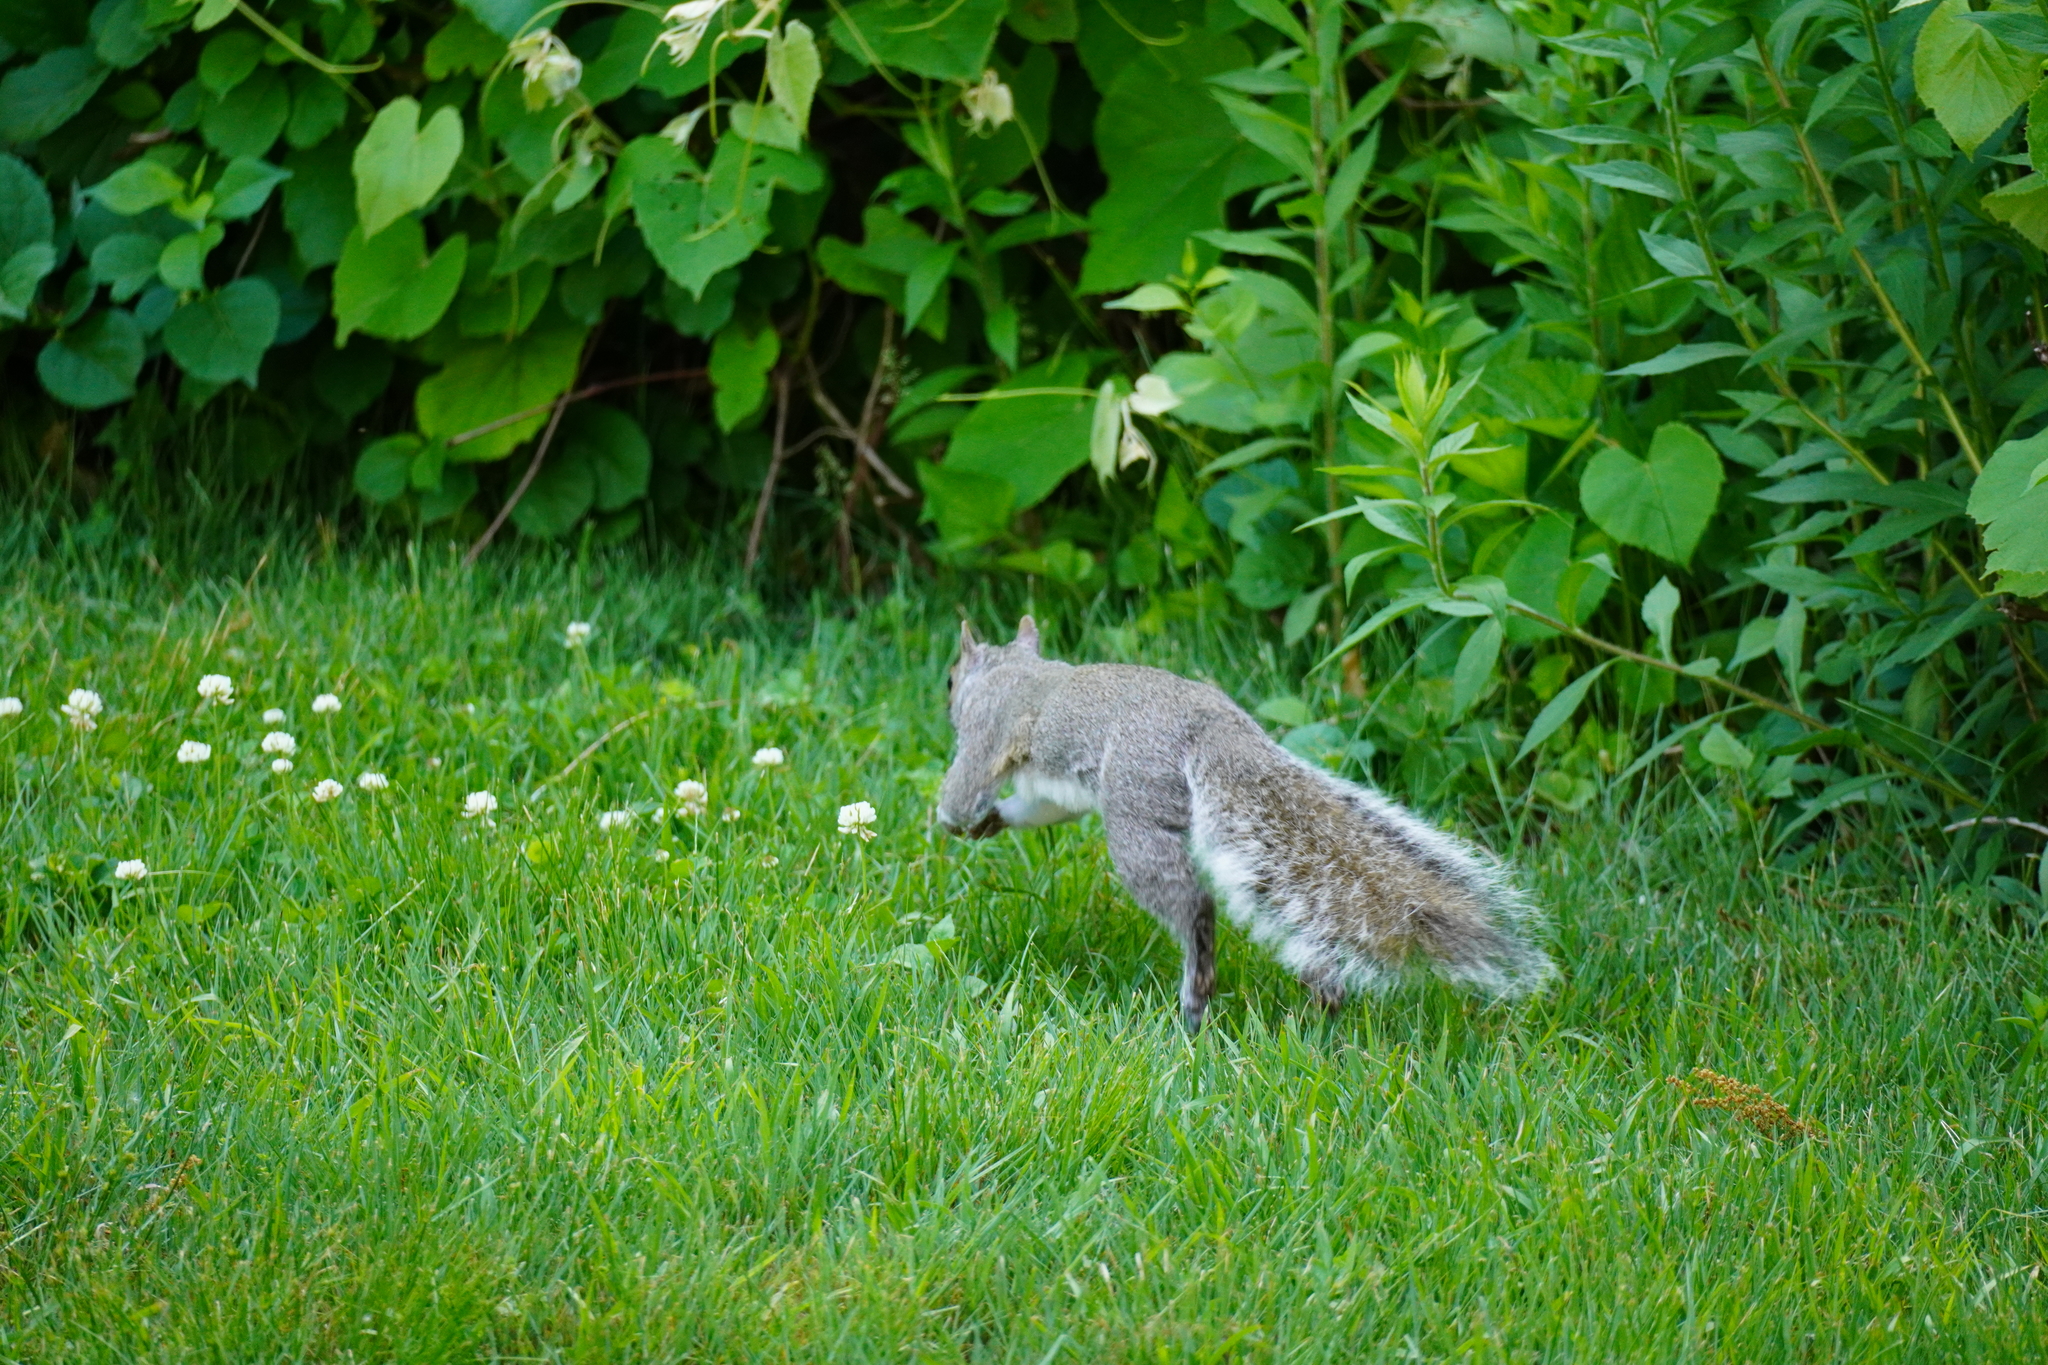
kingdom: Animalia
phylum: Chordata
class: Mammalia
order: Rodentia
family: Sciuridae
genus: Sciurus
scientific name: Sciurus carolinensis
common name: Eastern gray squirrel
